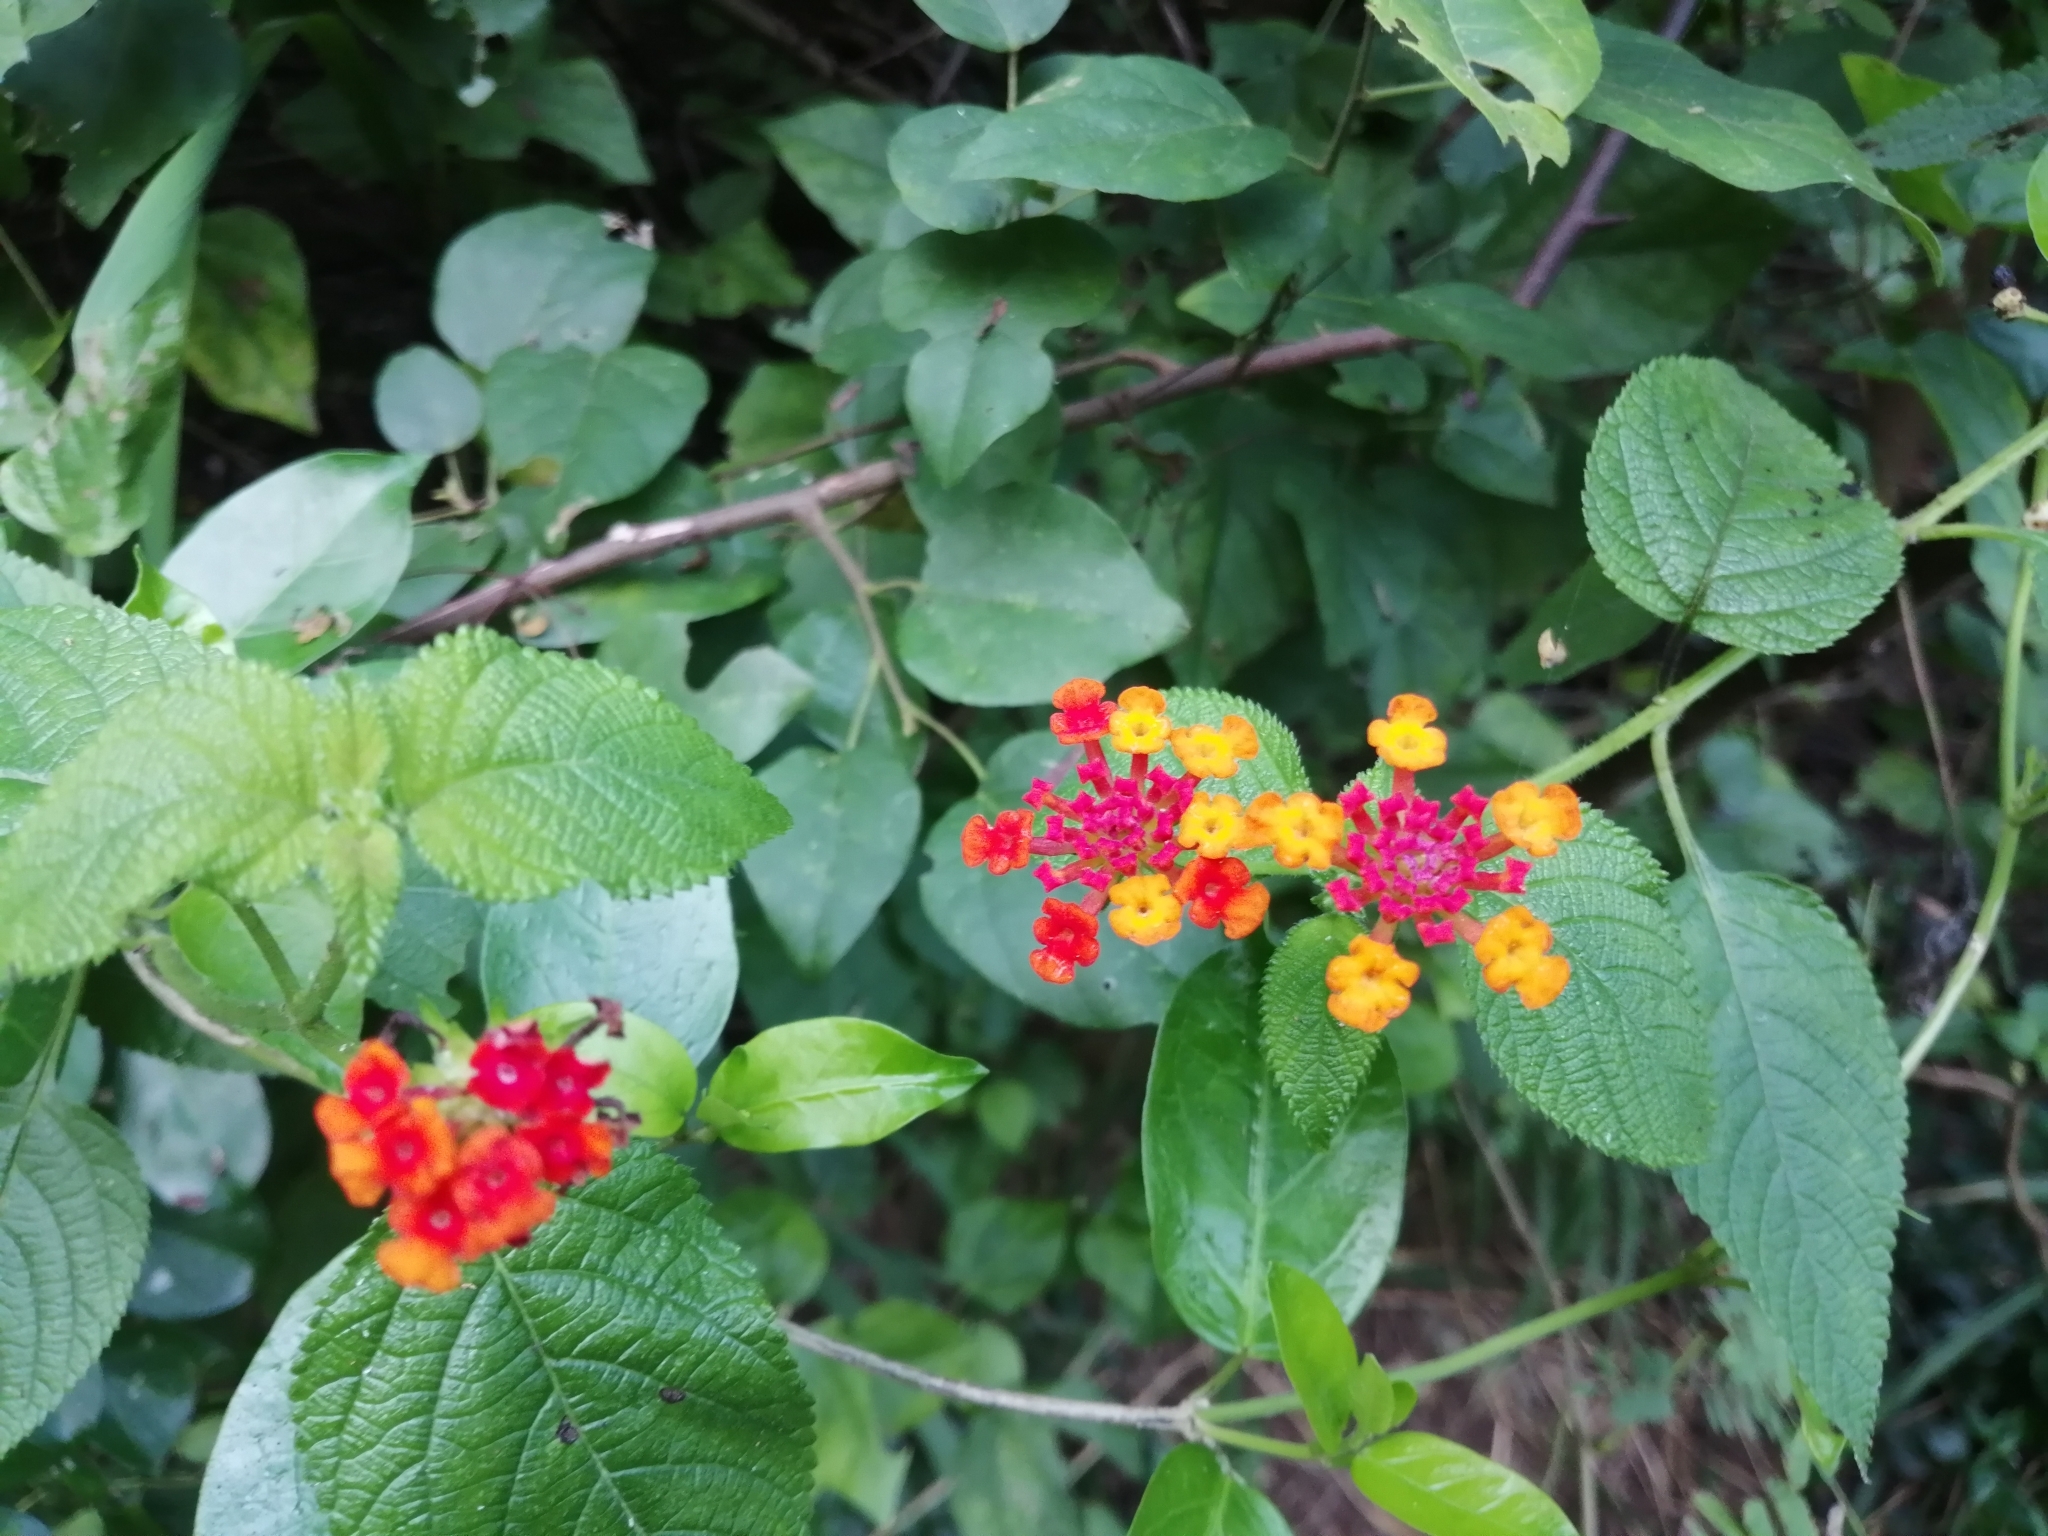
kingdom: Plantae
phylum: Tracheophyta
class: Magnoliopsida
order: Lamiales
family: Verbenaceae
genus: Lantana
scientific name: Lantana camara
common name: Lantana
